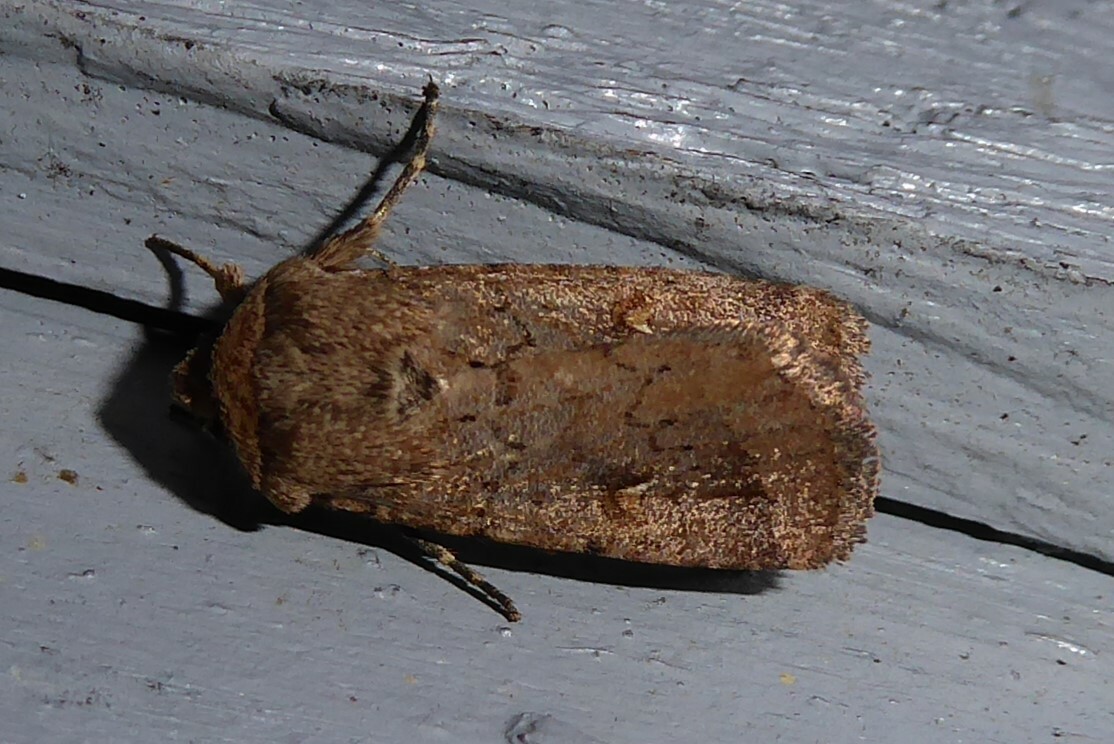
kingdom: Animalia
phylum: Arthropoda
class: Insecta
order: Lepidoptera
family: Noctuidae
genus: Proteuxoa
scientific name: Proteuxoa tetronycha
